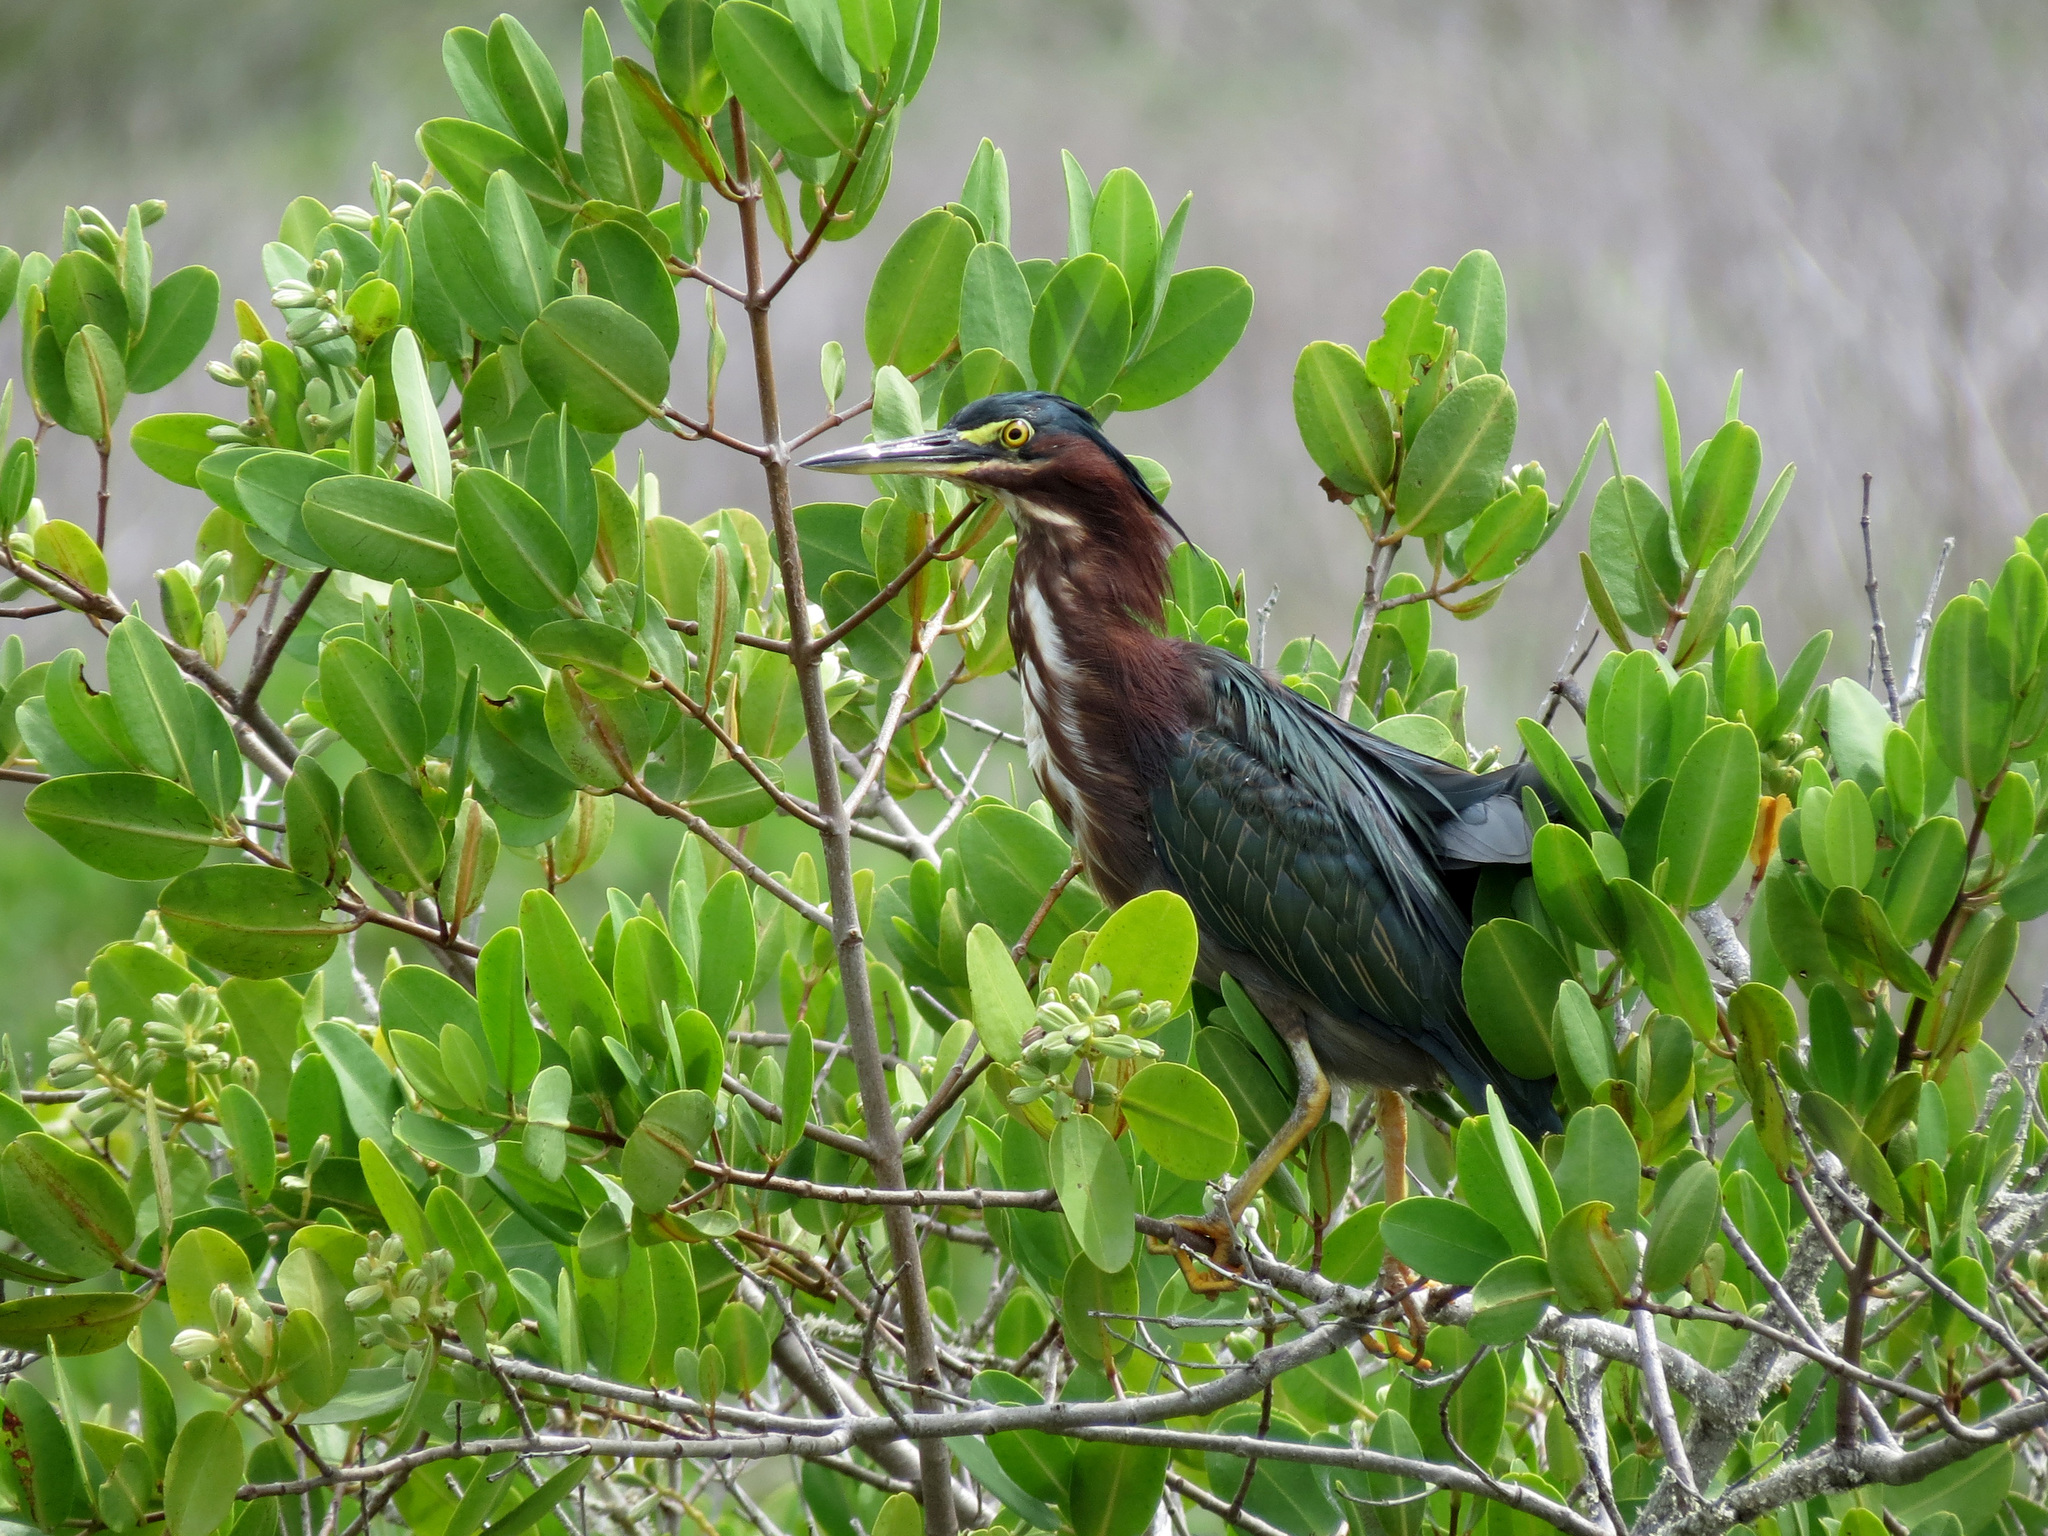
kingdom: Animalia
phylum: Chordata
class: Aves
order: Pelecaniformes
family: Ardeidae
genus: Butorides
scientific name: Butorides virescens
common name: Green heron
